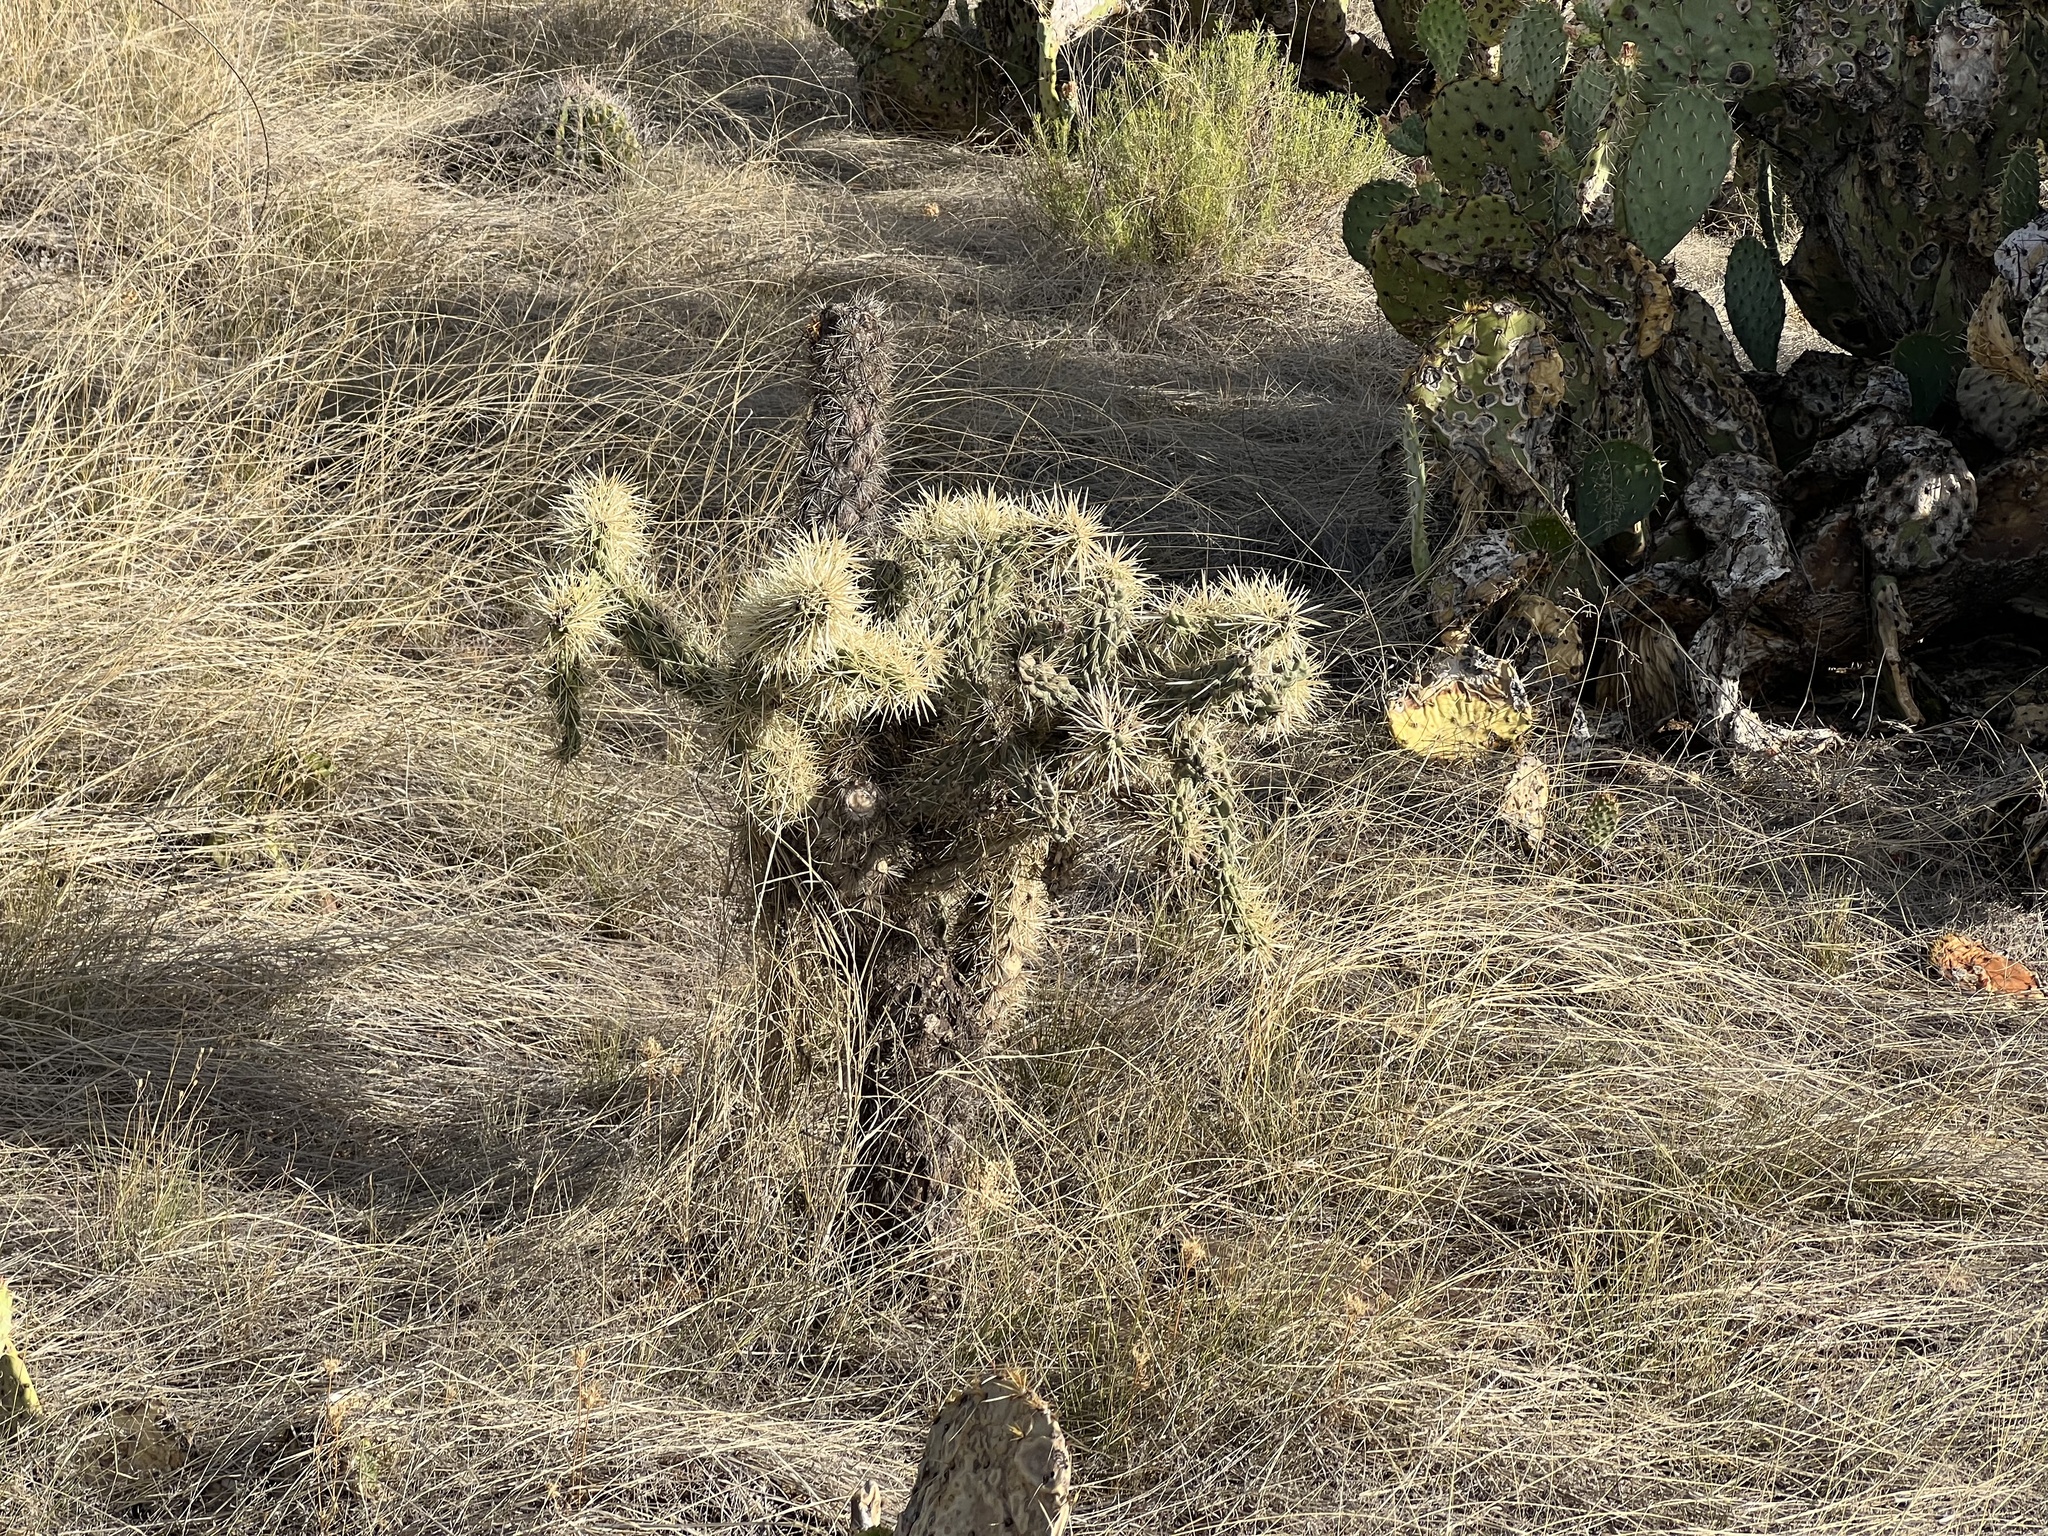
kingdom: Plantae
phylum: Tracheophyta
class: Magnoliopsida
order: Caryophyllales
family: Cactaceae
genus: Cylindropuntia
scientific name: Cylindropuntia fulgida
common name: Jumping cholla
